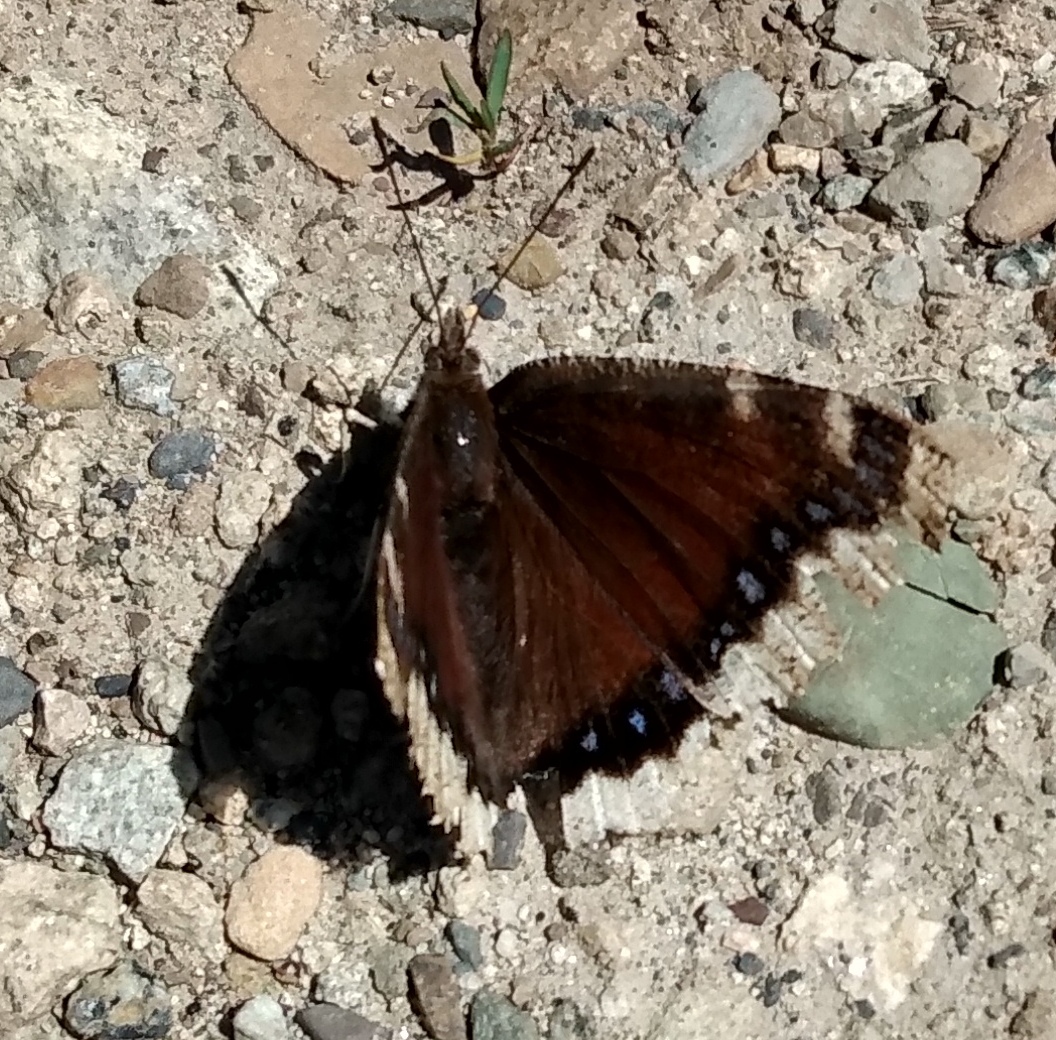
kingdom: Animalia
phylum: Arthropoda
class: Insecta
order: Lepidoptera
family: Nymphalidae
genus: Nymphalis
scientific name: Nymphalis antiopa
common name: Camberwell beauty
